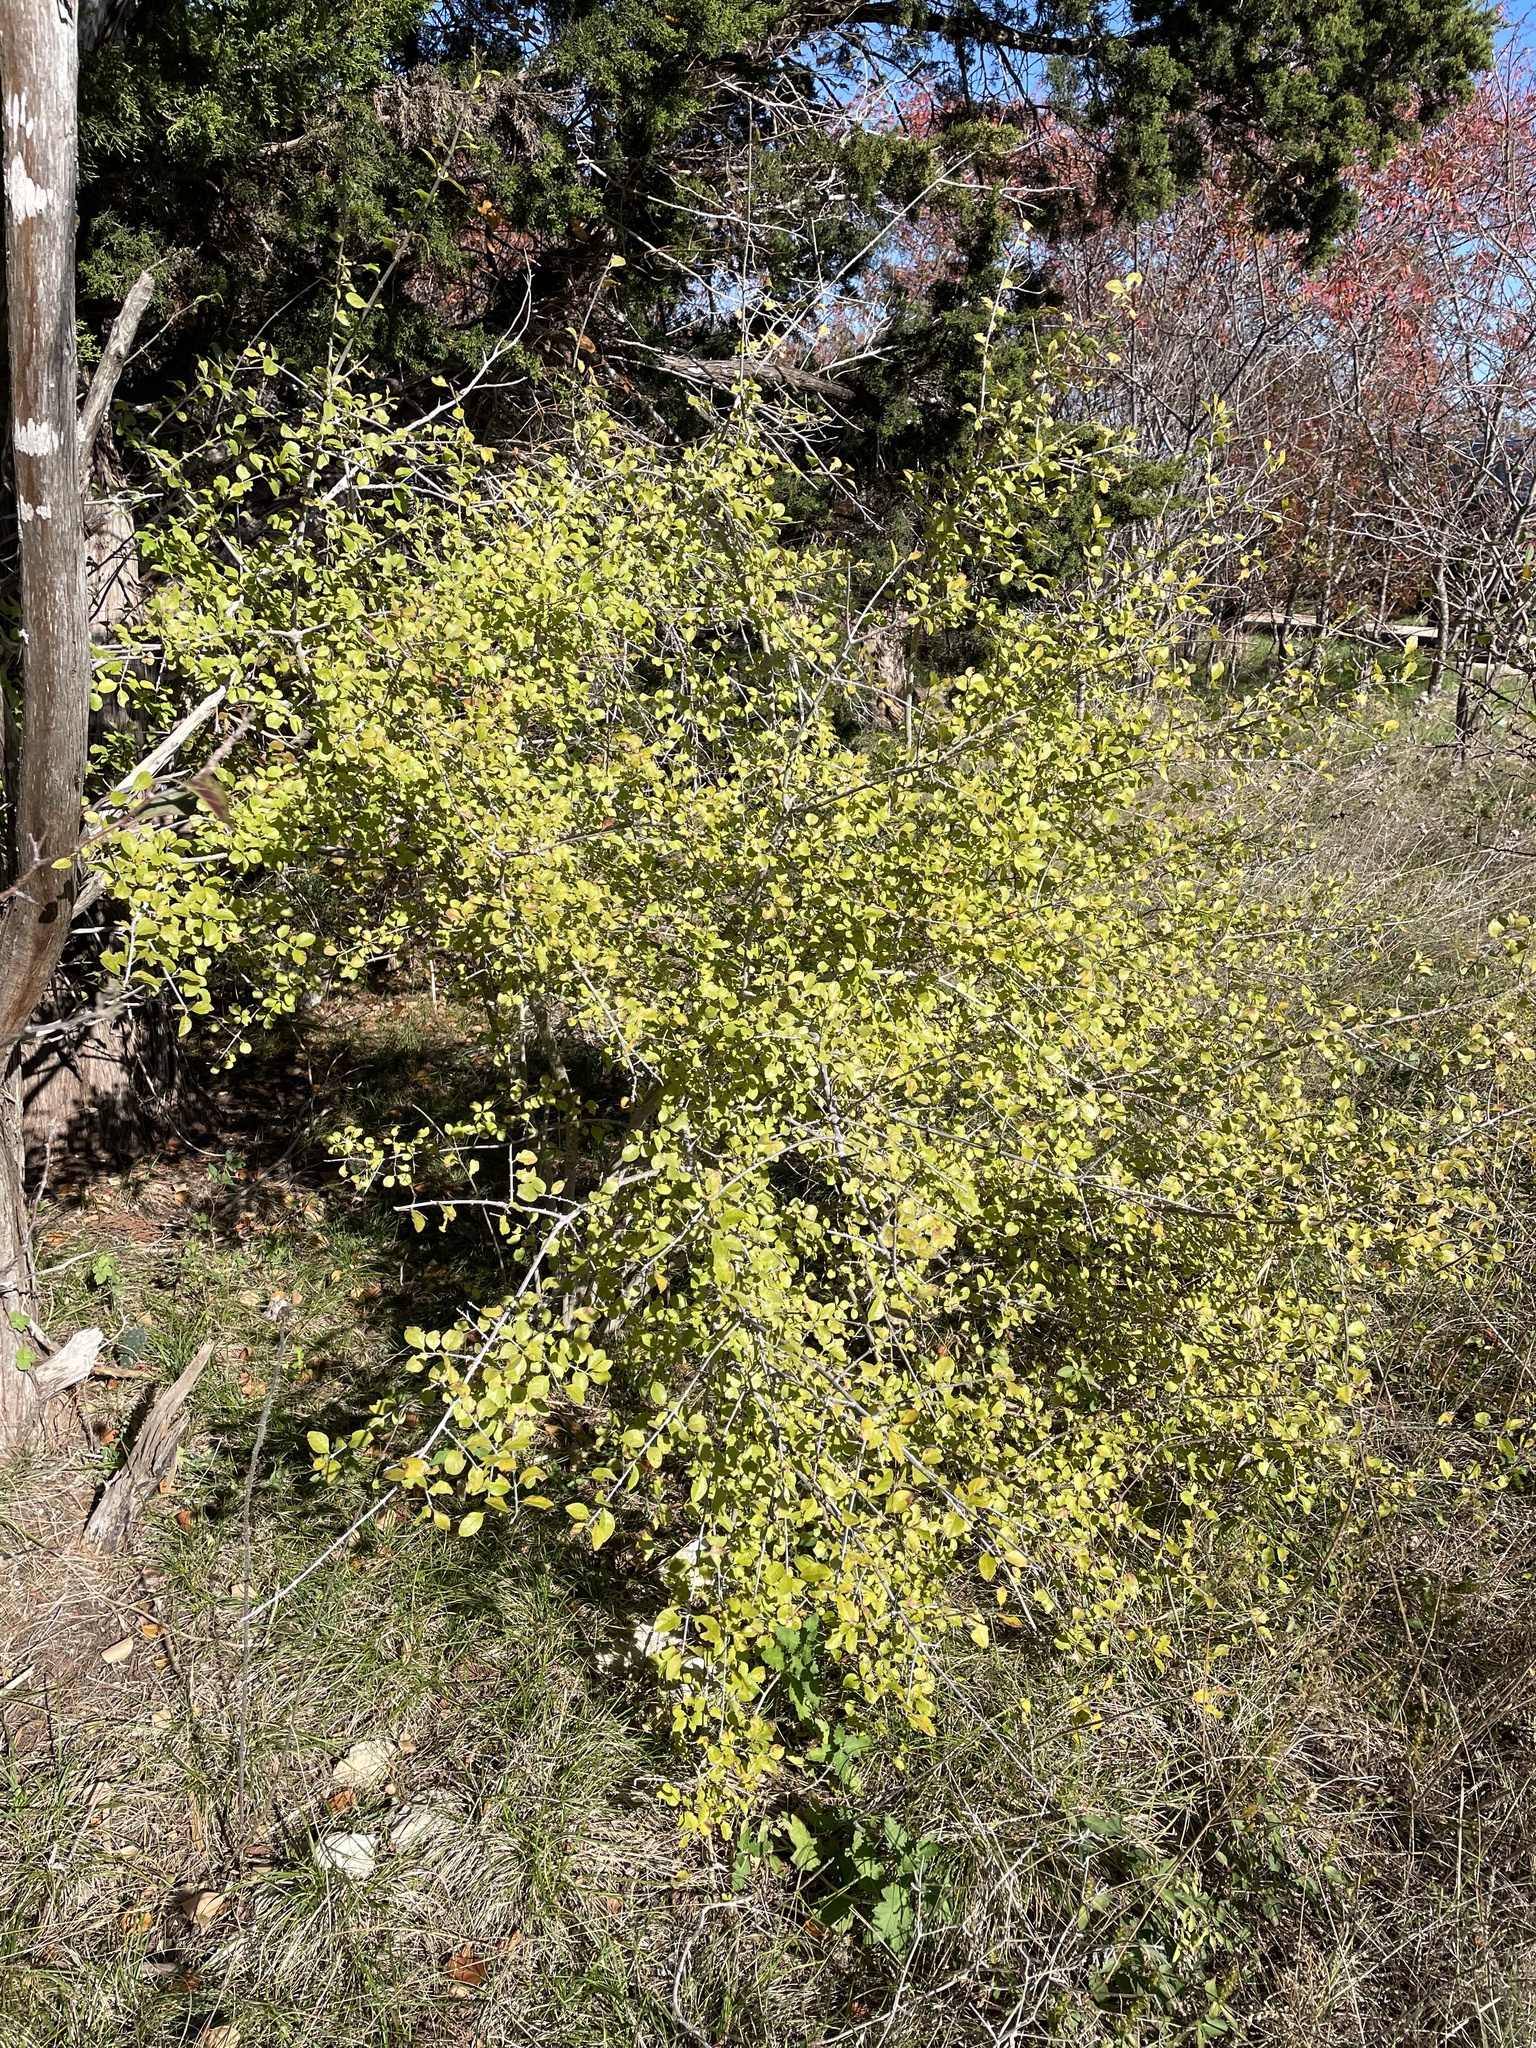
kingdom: Plantae
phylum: Tracheophyta
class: Magnoliopsida
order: Lamiales
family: Oleaceae
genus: Forestiera
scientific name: Forestiera pubescens
